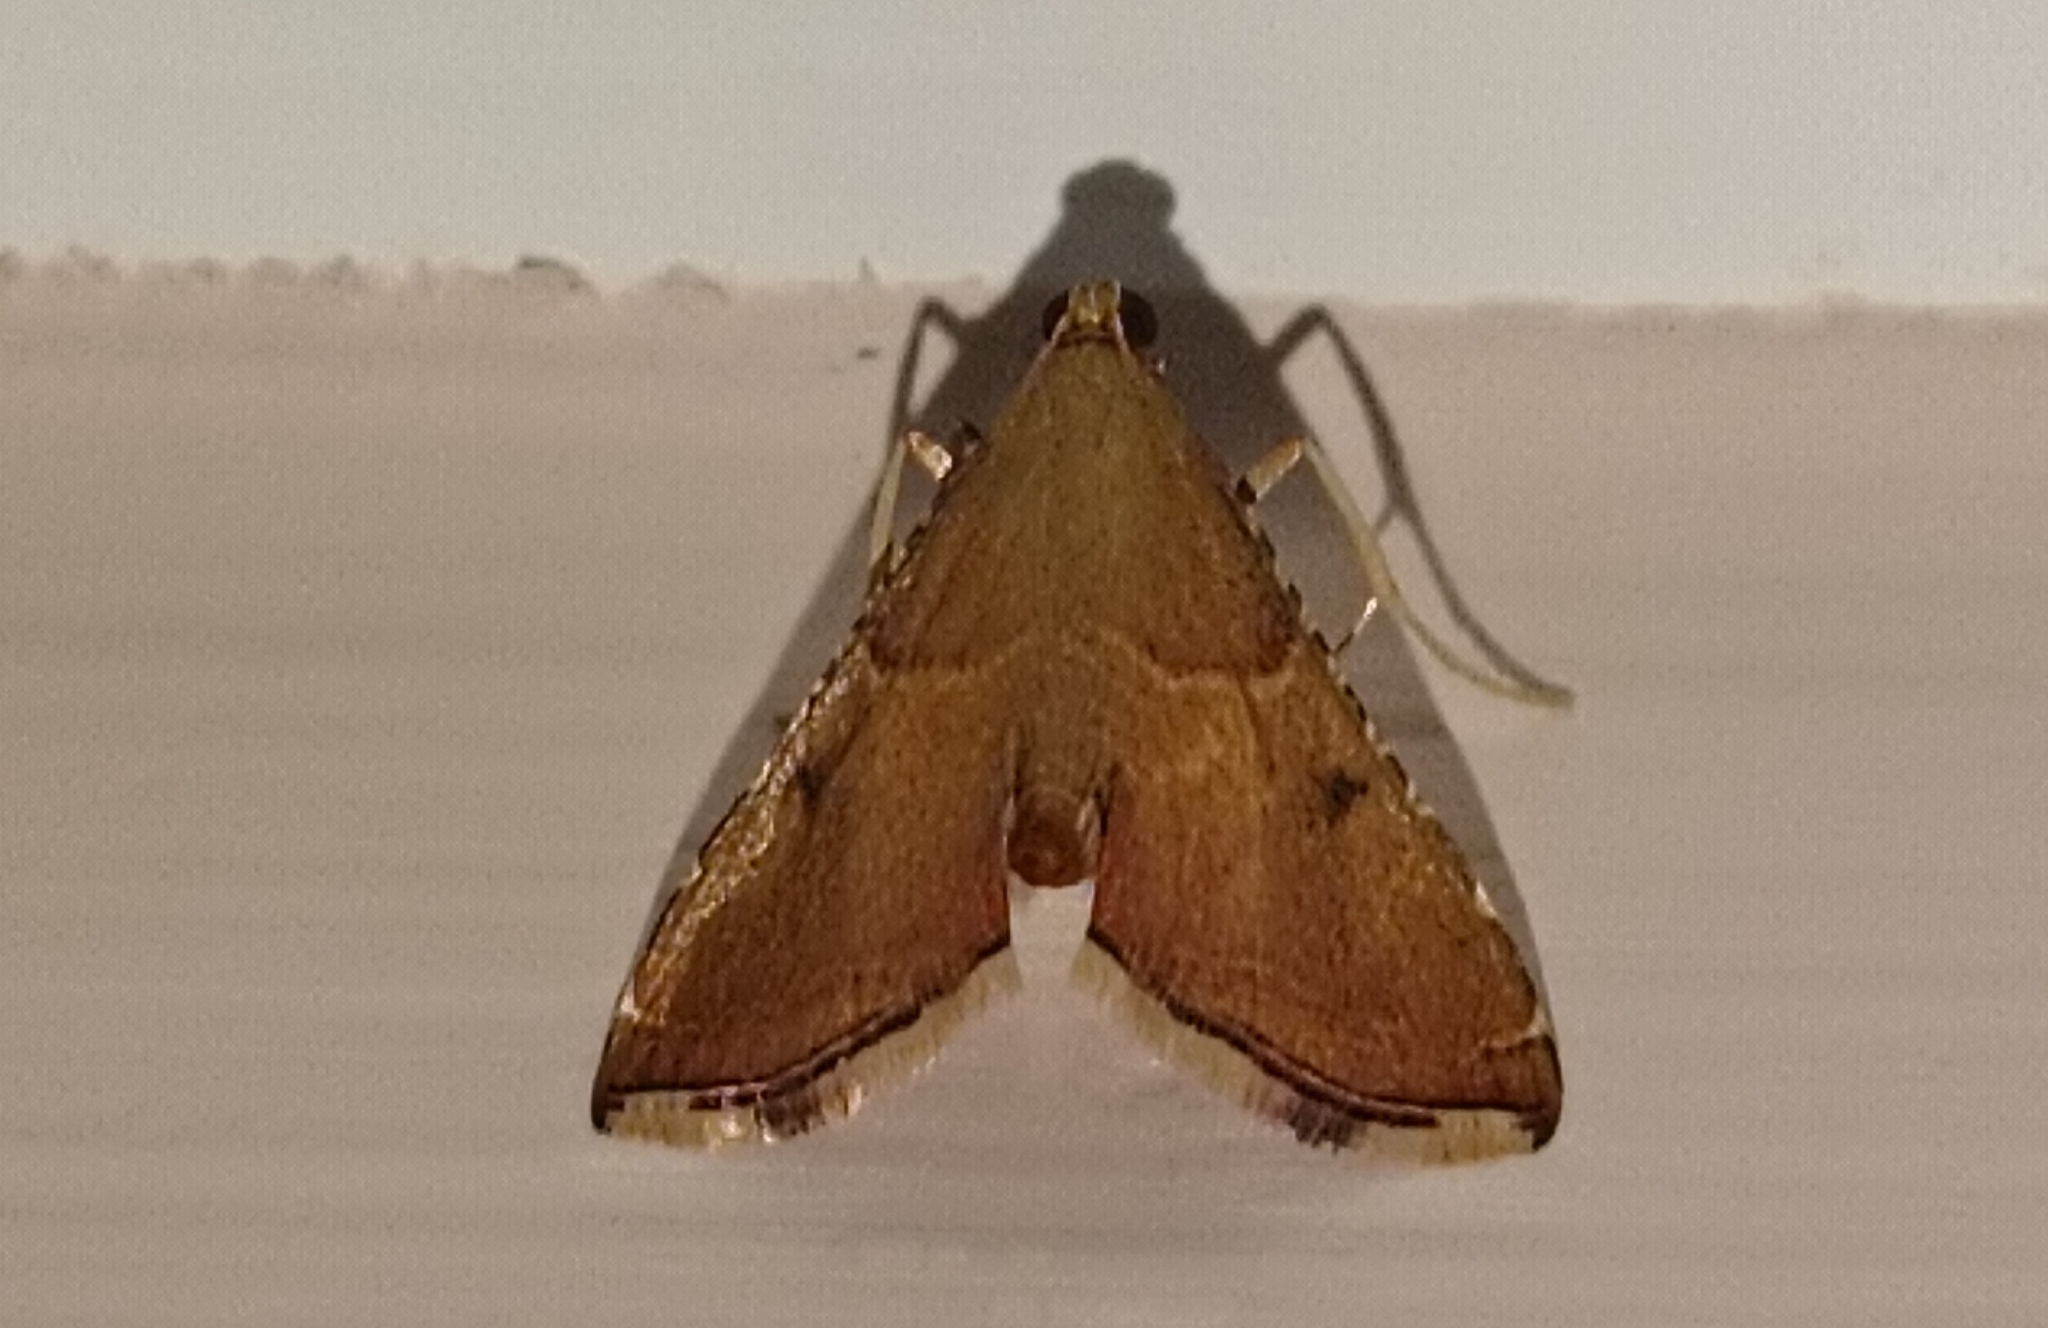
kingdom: Animalia
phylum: Arthropoda
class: Insecta
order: Lepidoptera
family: Pyralidae
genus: Endotricha
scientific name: Endotricha flammealis
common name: Rosy tabby
